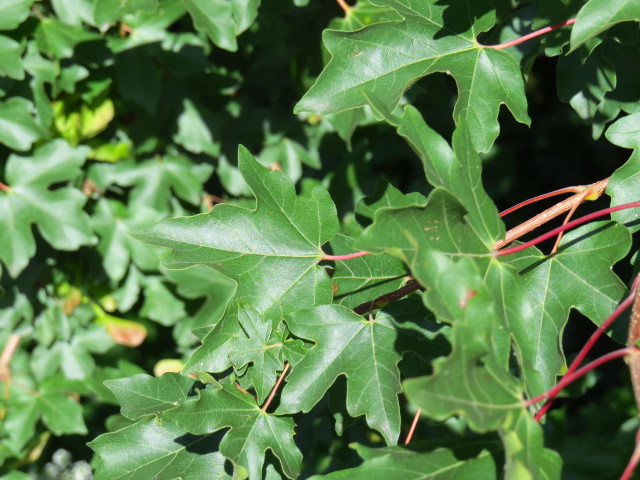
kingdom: Plantae
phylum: Tracheophyta
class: Magnoliopsida
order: Sapindales
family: Sapindaceae
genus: Acer
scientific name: Acer campestre
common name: Field maple
